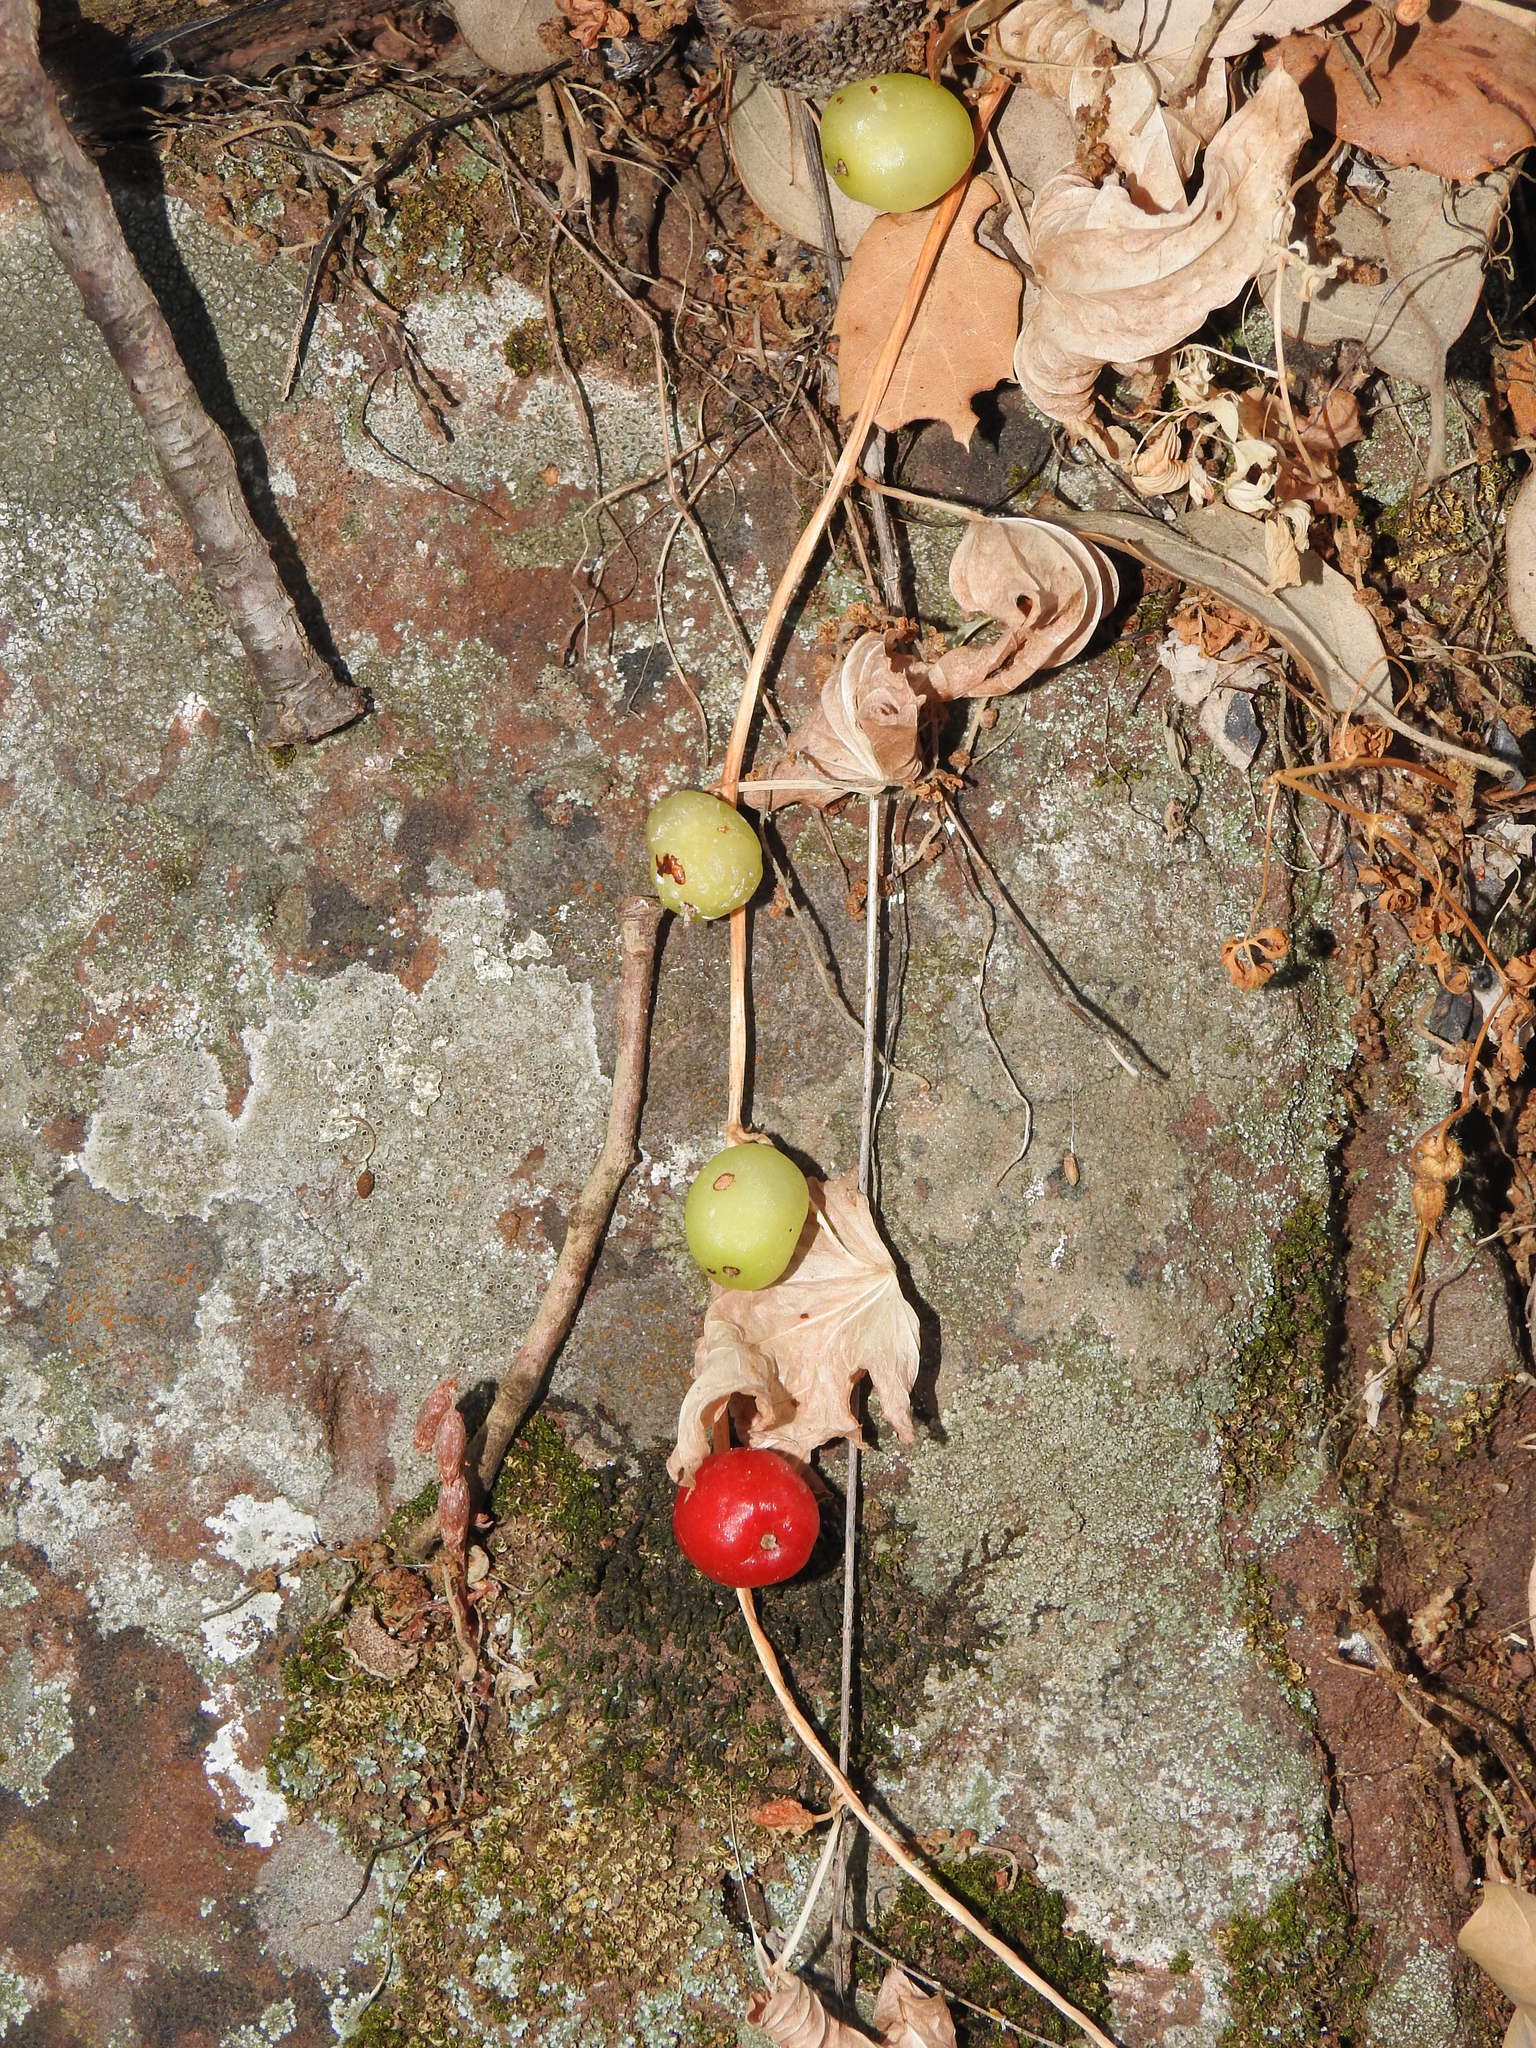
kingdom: Plantae
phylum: Tracheophyta
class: Liliopsida
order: Dioscoreales
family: Dioscoreaceae
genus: Dioscorea
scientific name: Dioscorea communis
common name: Black-bindweed
